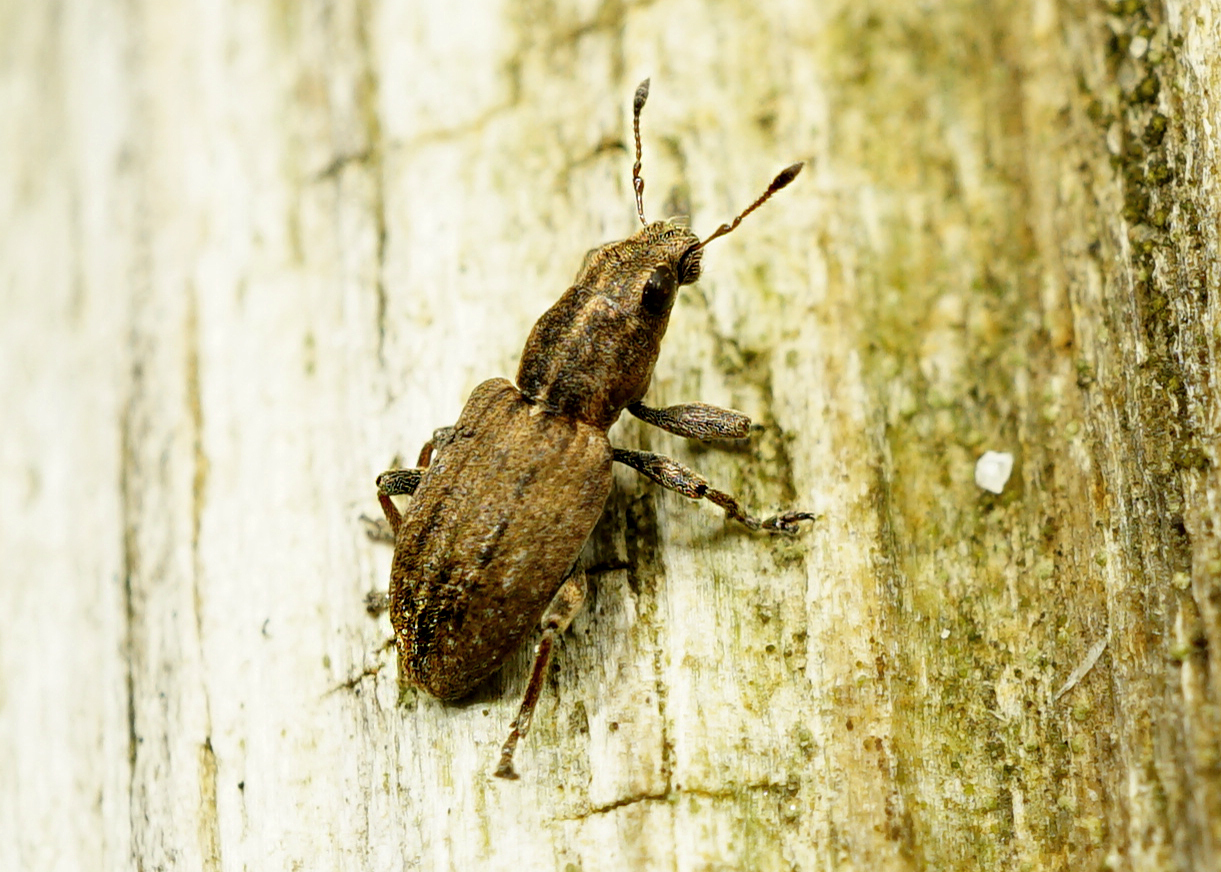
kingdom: Animalia
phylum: Arthropoda
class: Insecta
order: Coleoptera
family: Curculionidae
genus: Sitona
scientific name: Sitona obsoletus
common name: Weevil
